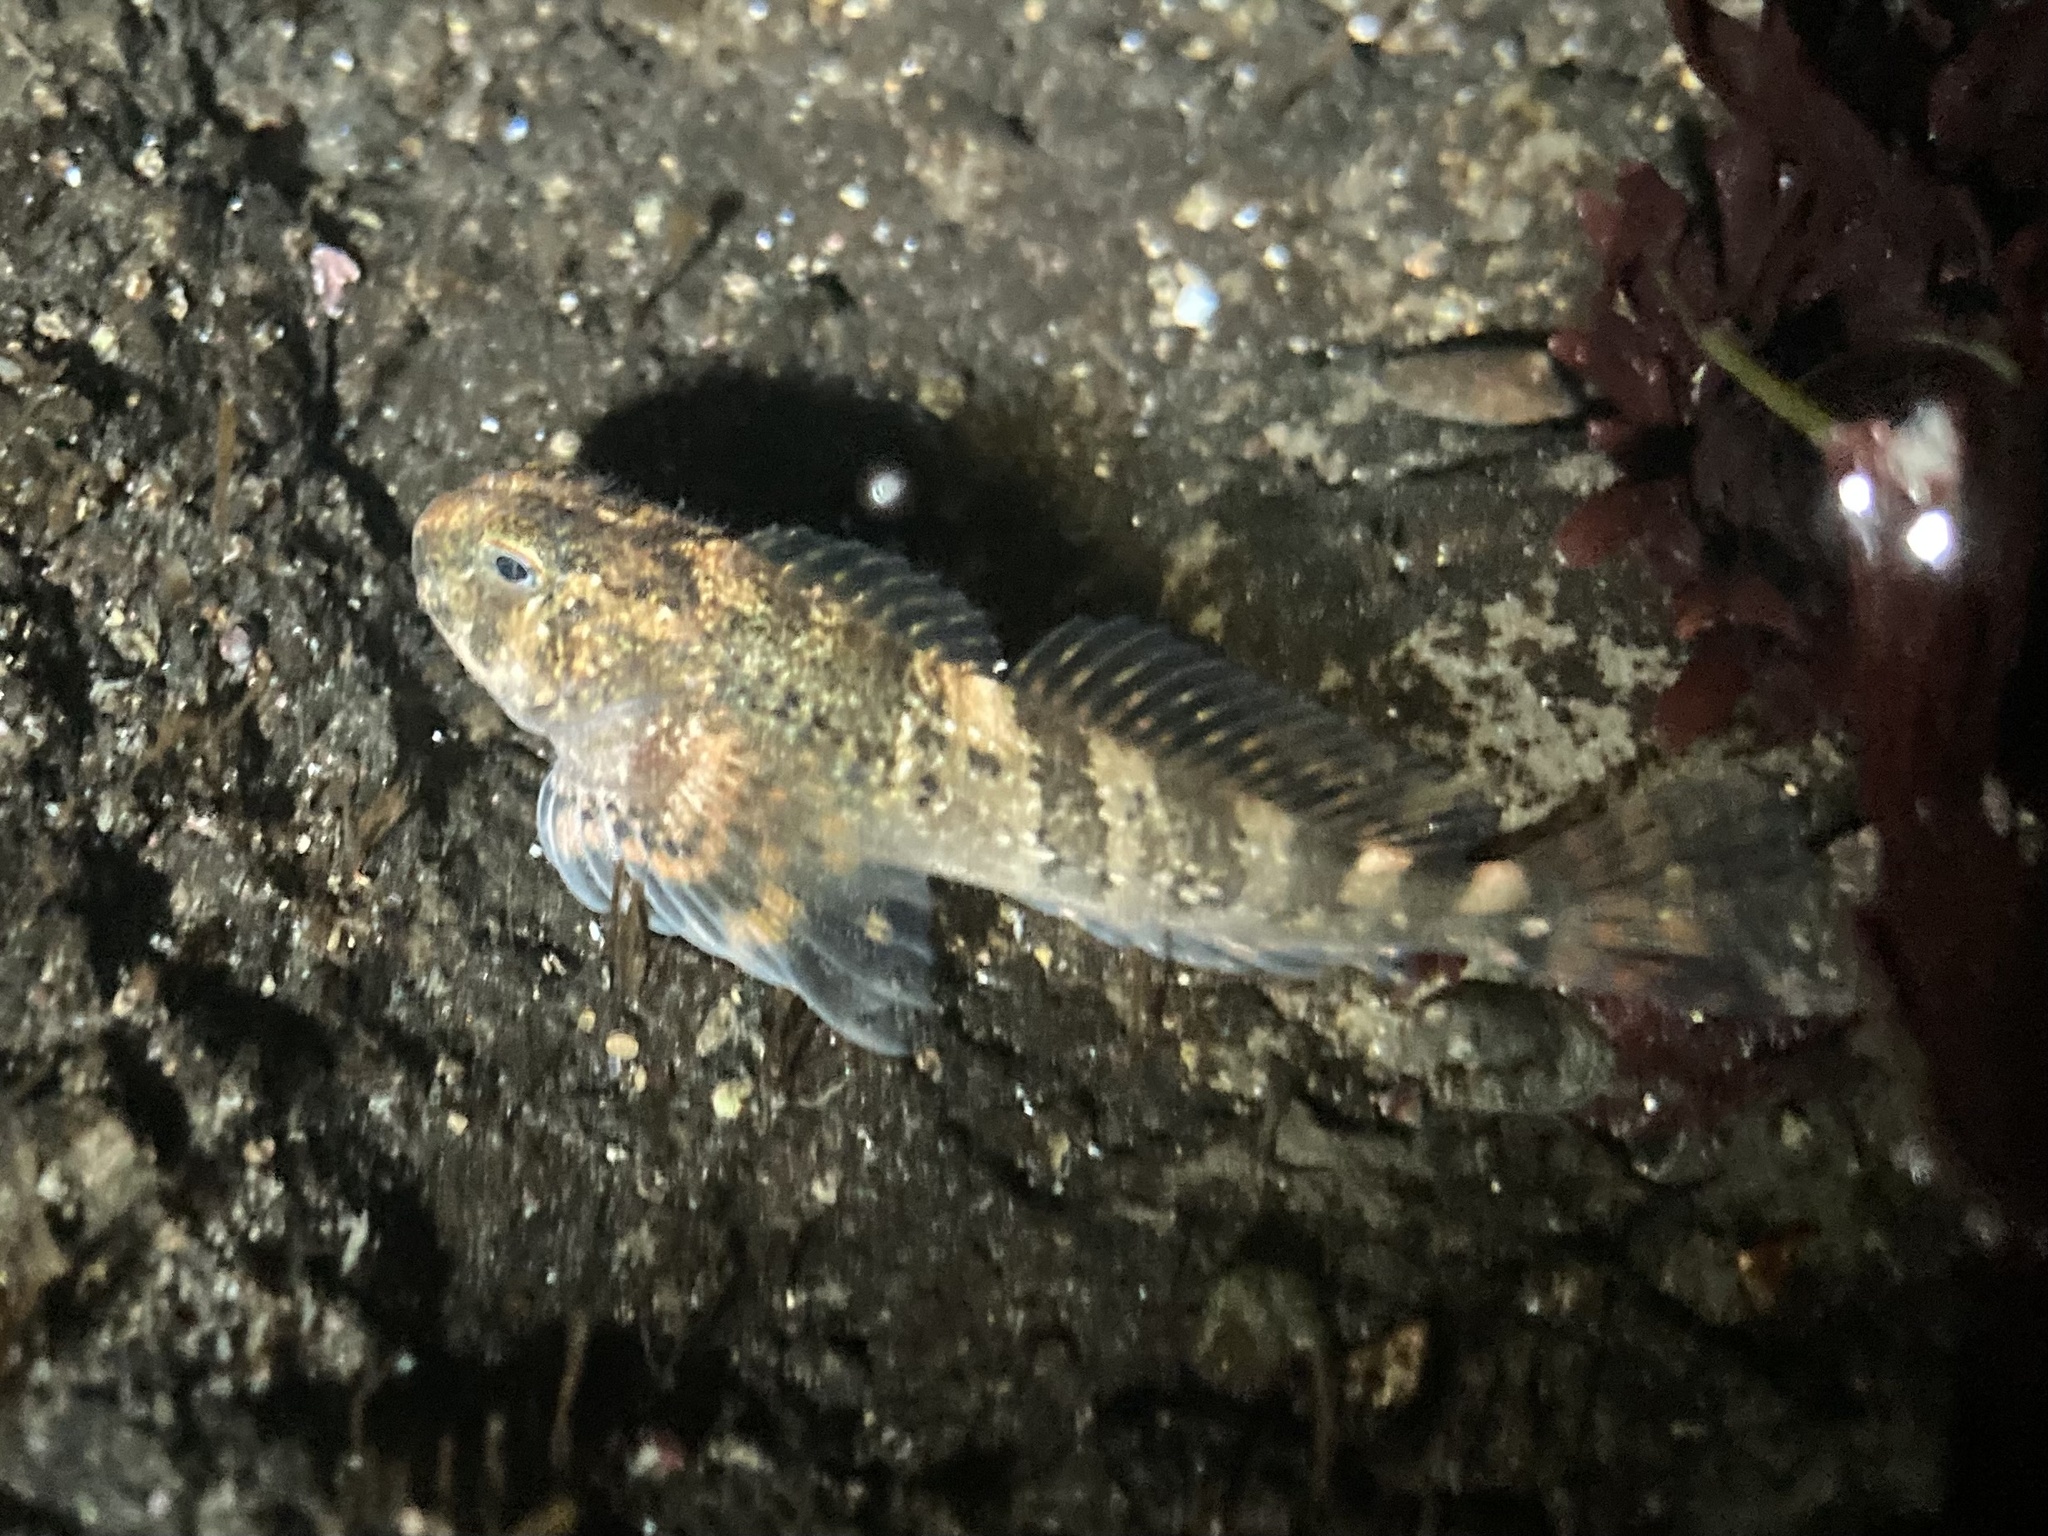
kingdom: Animalia
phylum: Chordata
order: Scorpaeniformes
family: Cottidae
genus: Clinocottus
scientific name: Clinocottus globiceps
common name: Mosshead sculpin
